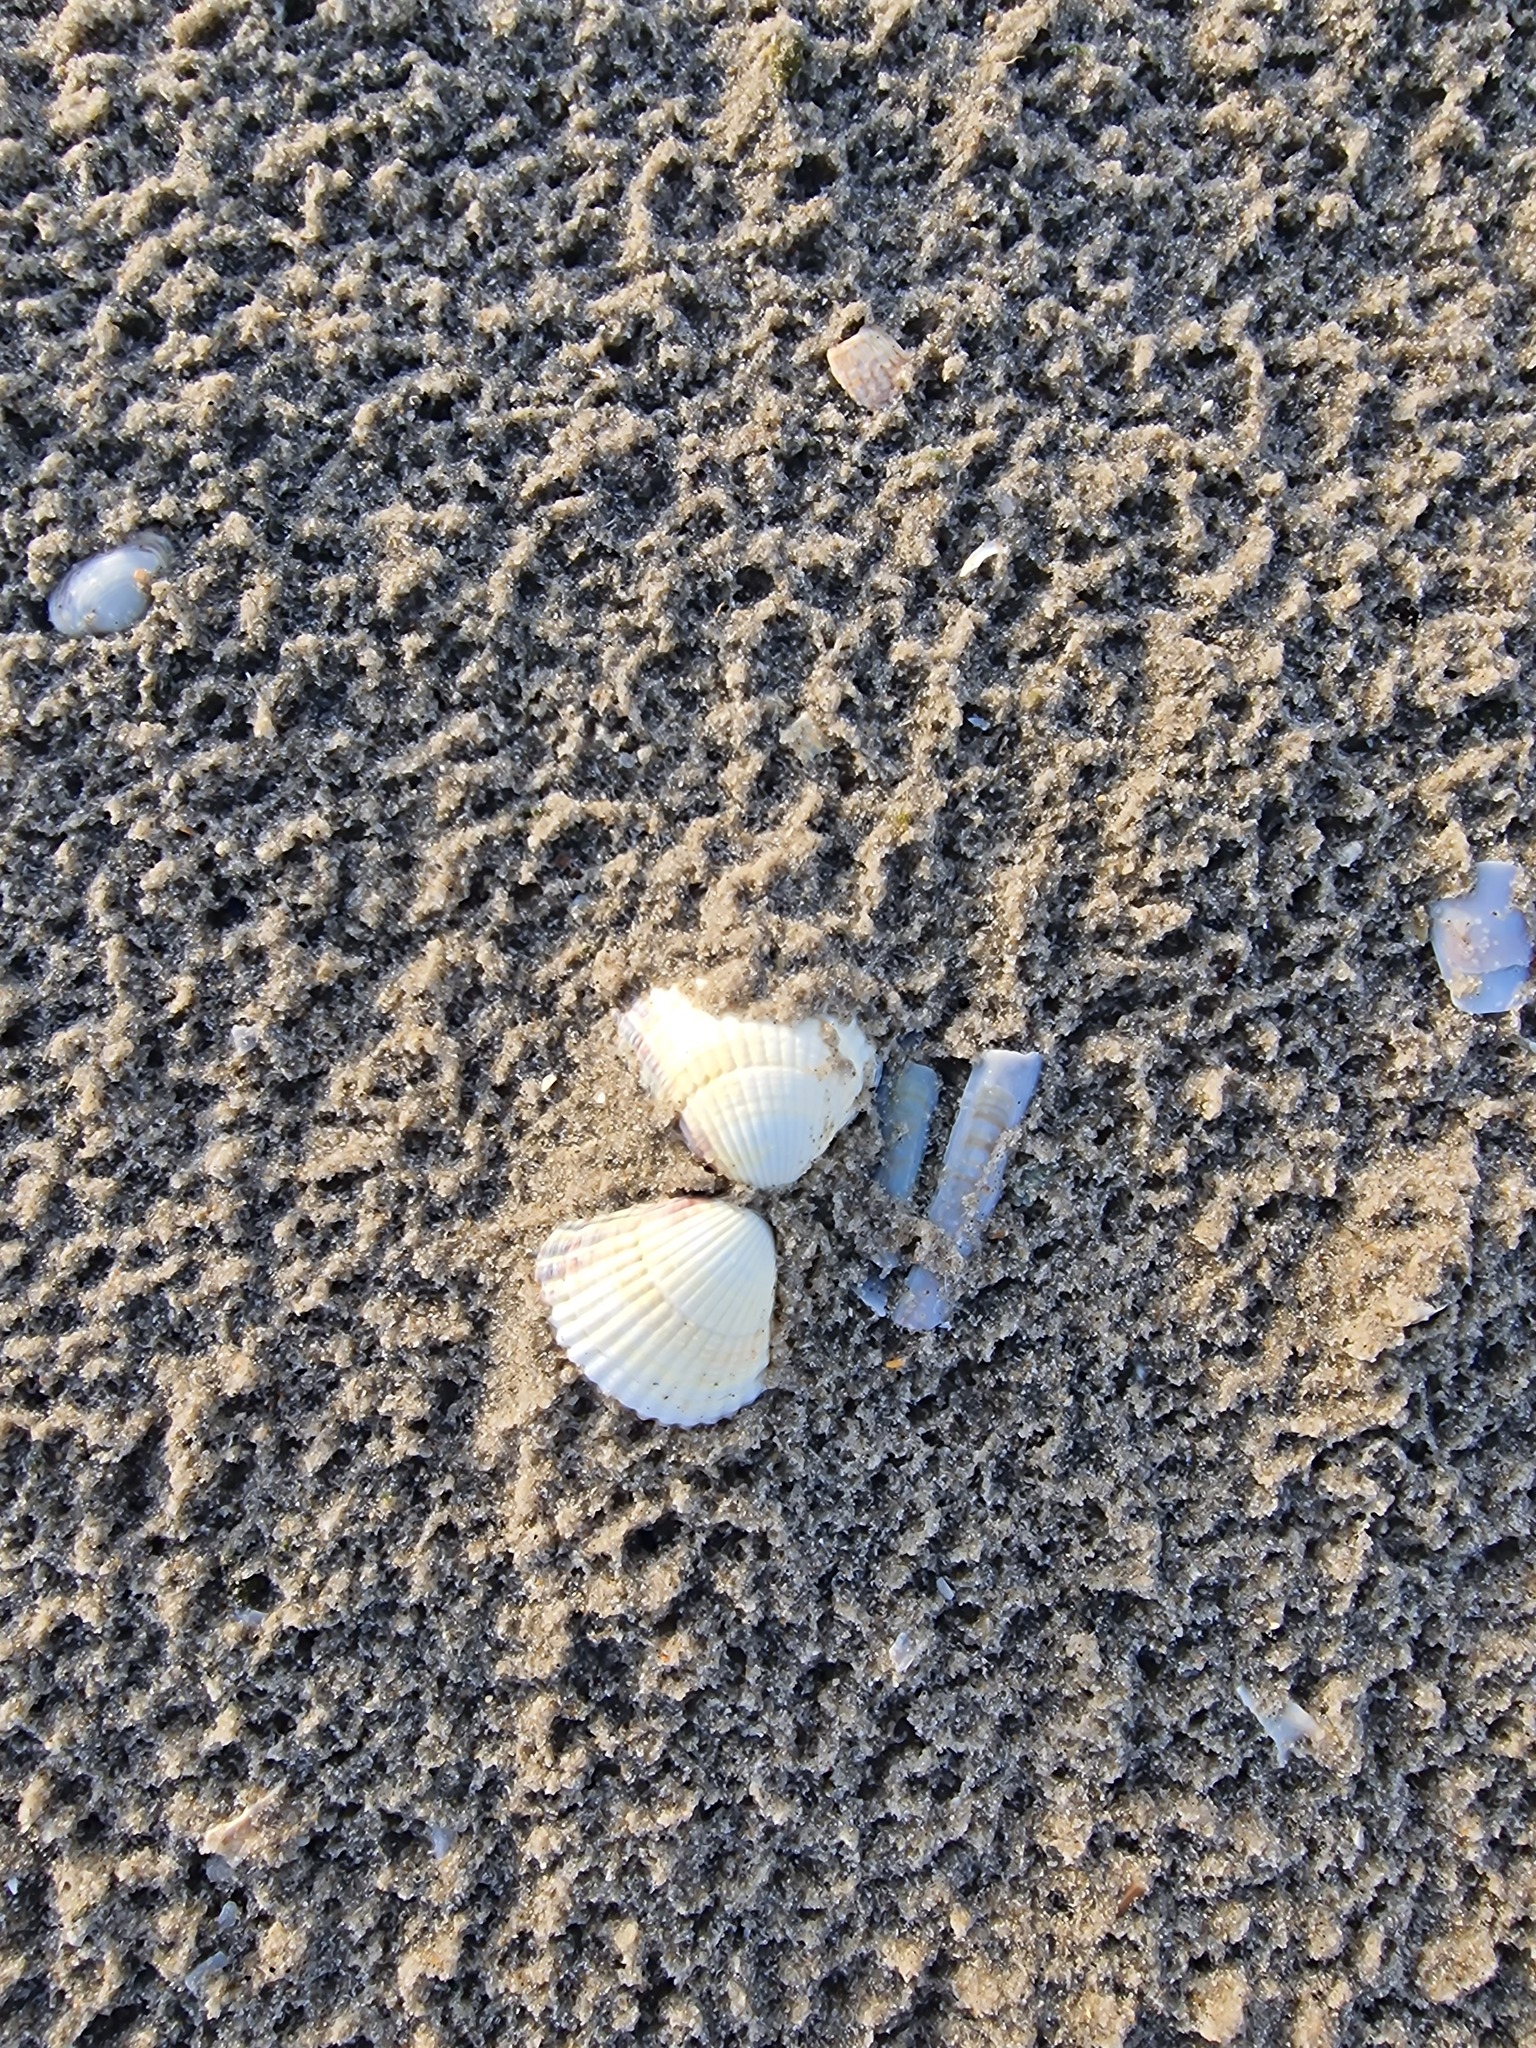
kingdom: Animalia
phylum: Mollusca
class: Bivalvia
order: Cardiida
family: Cardiidae
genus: Cerastoderma
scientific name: Cerastoderma edule
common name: Common cockle
